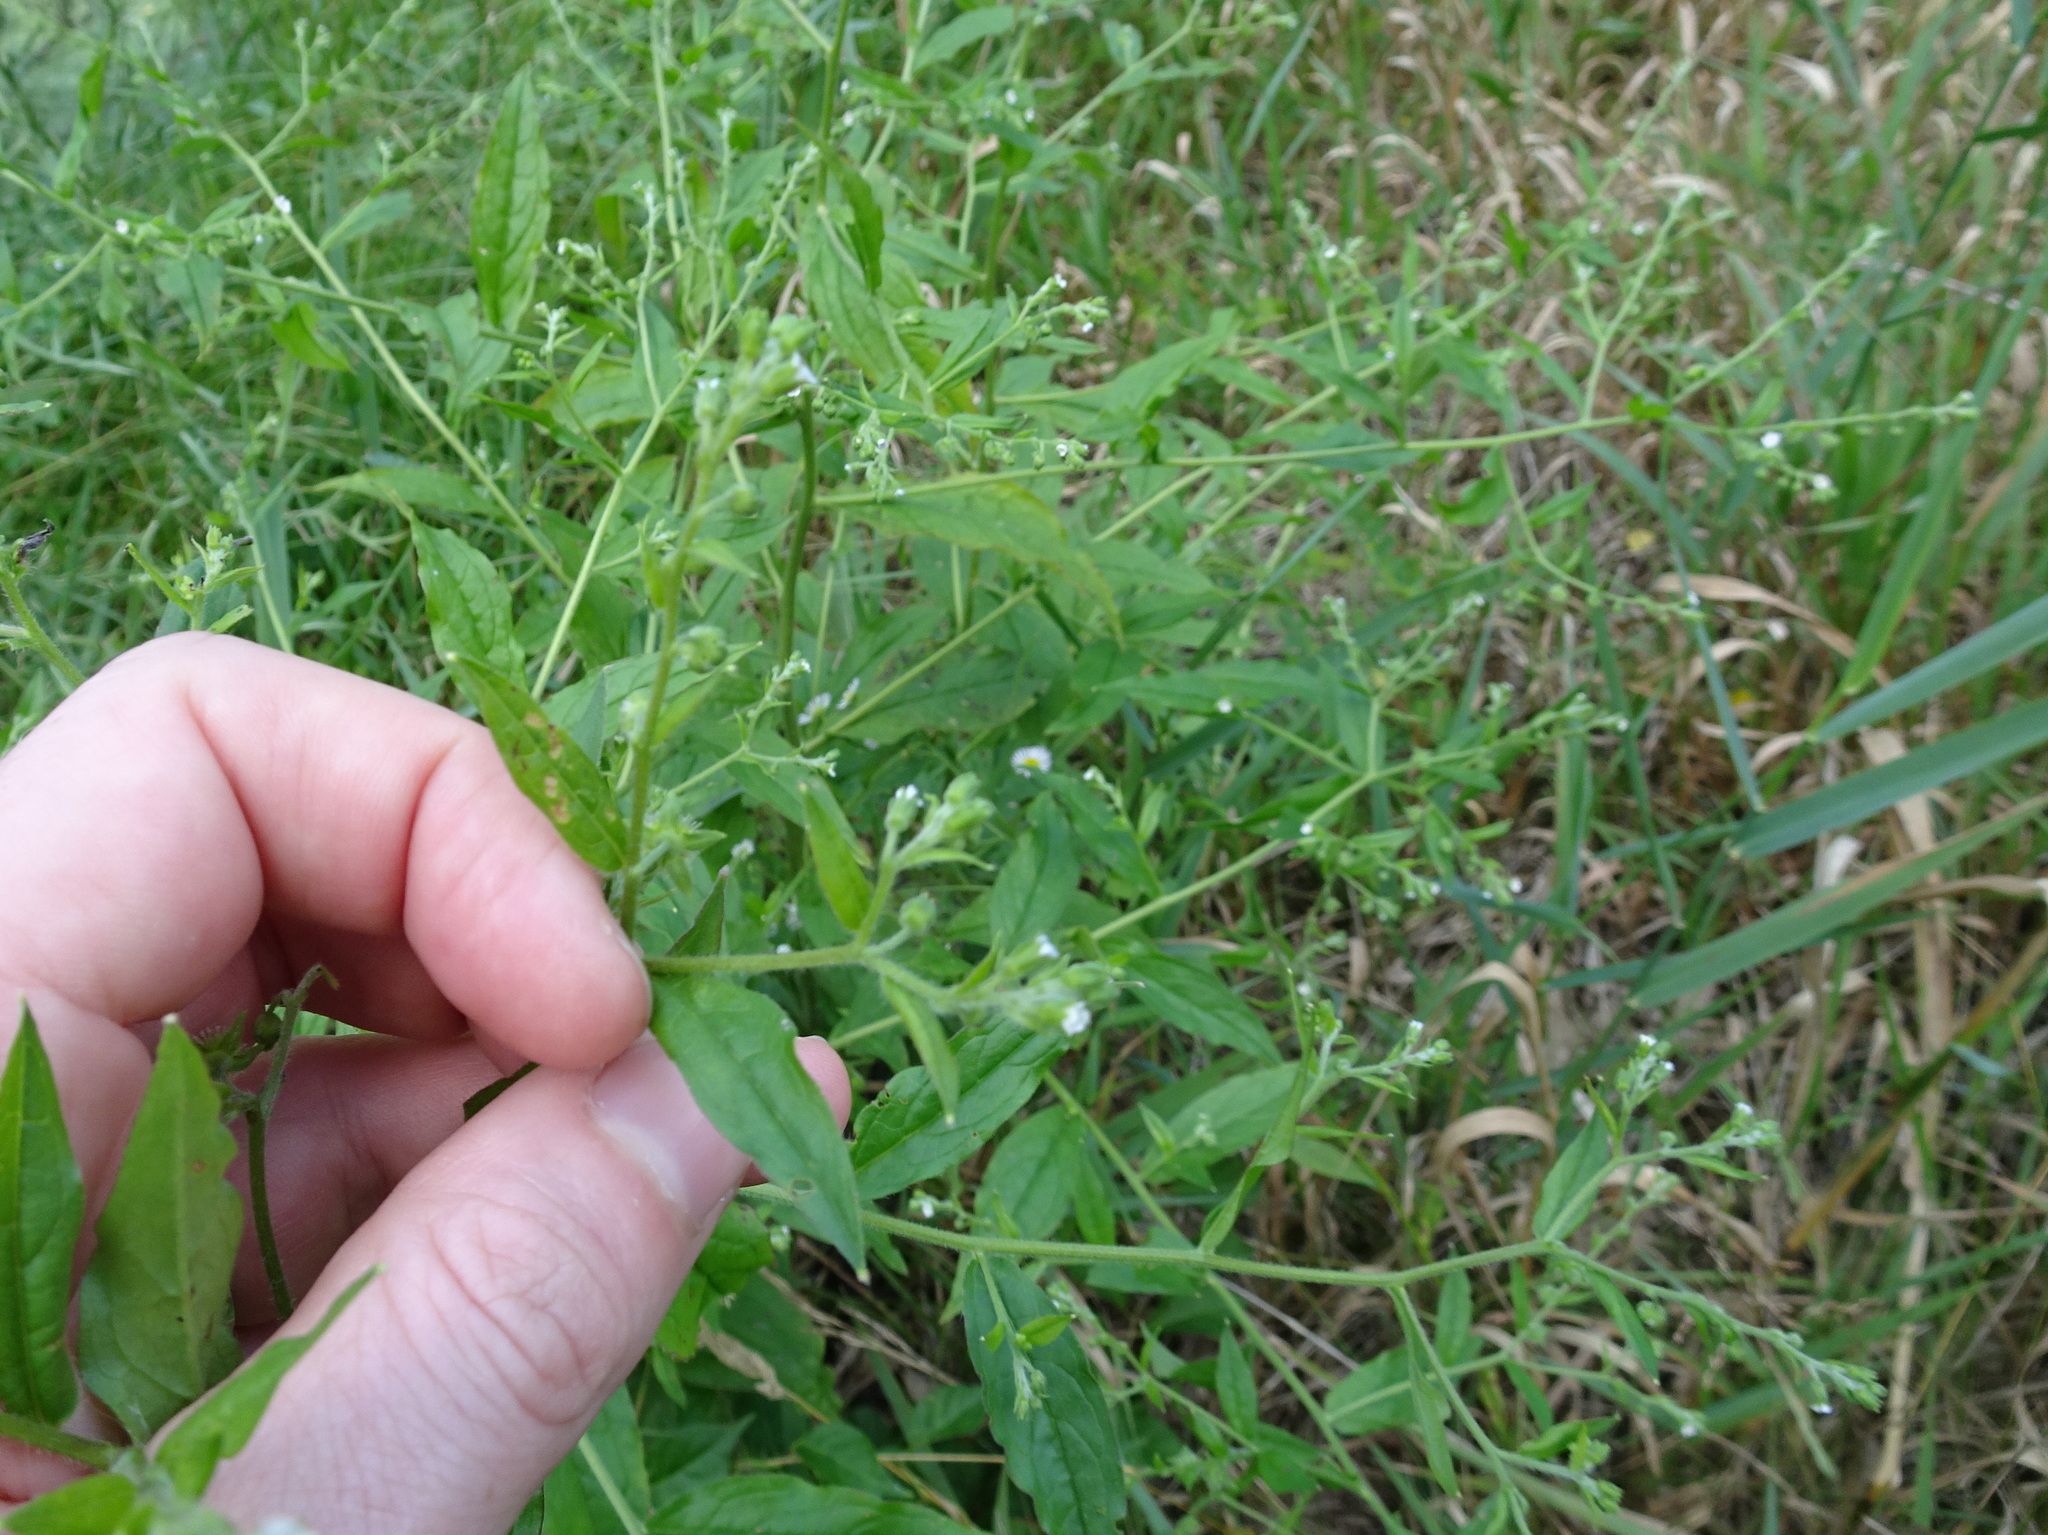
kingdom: Plantae
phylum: Tracheophyta
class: Magnoliopsida
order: Boraginales
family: Boraginaceae
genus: Hackelia
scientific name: Hackelia virginiana
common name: Beggar's-lice
